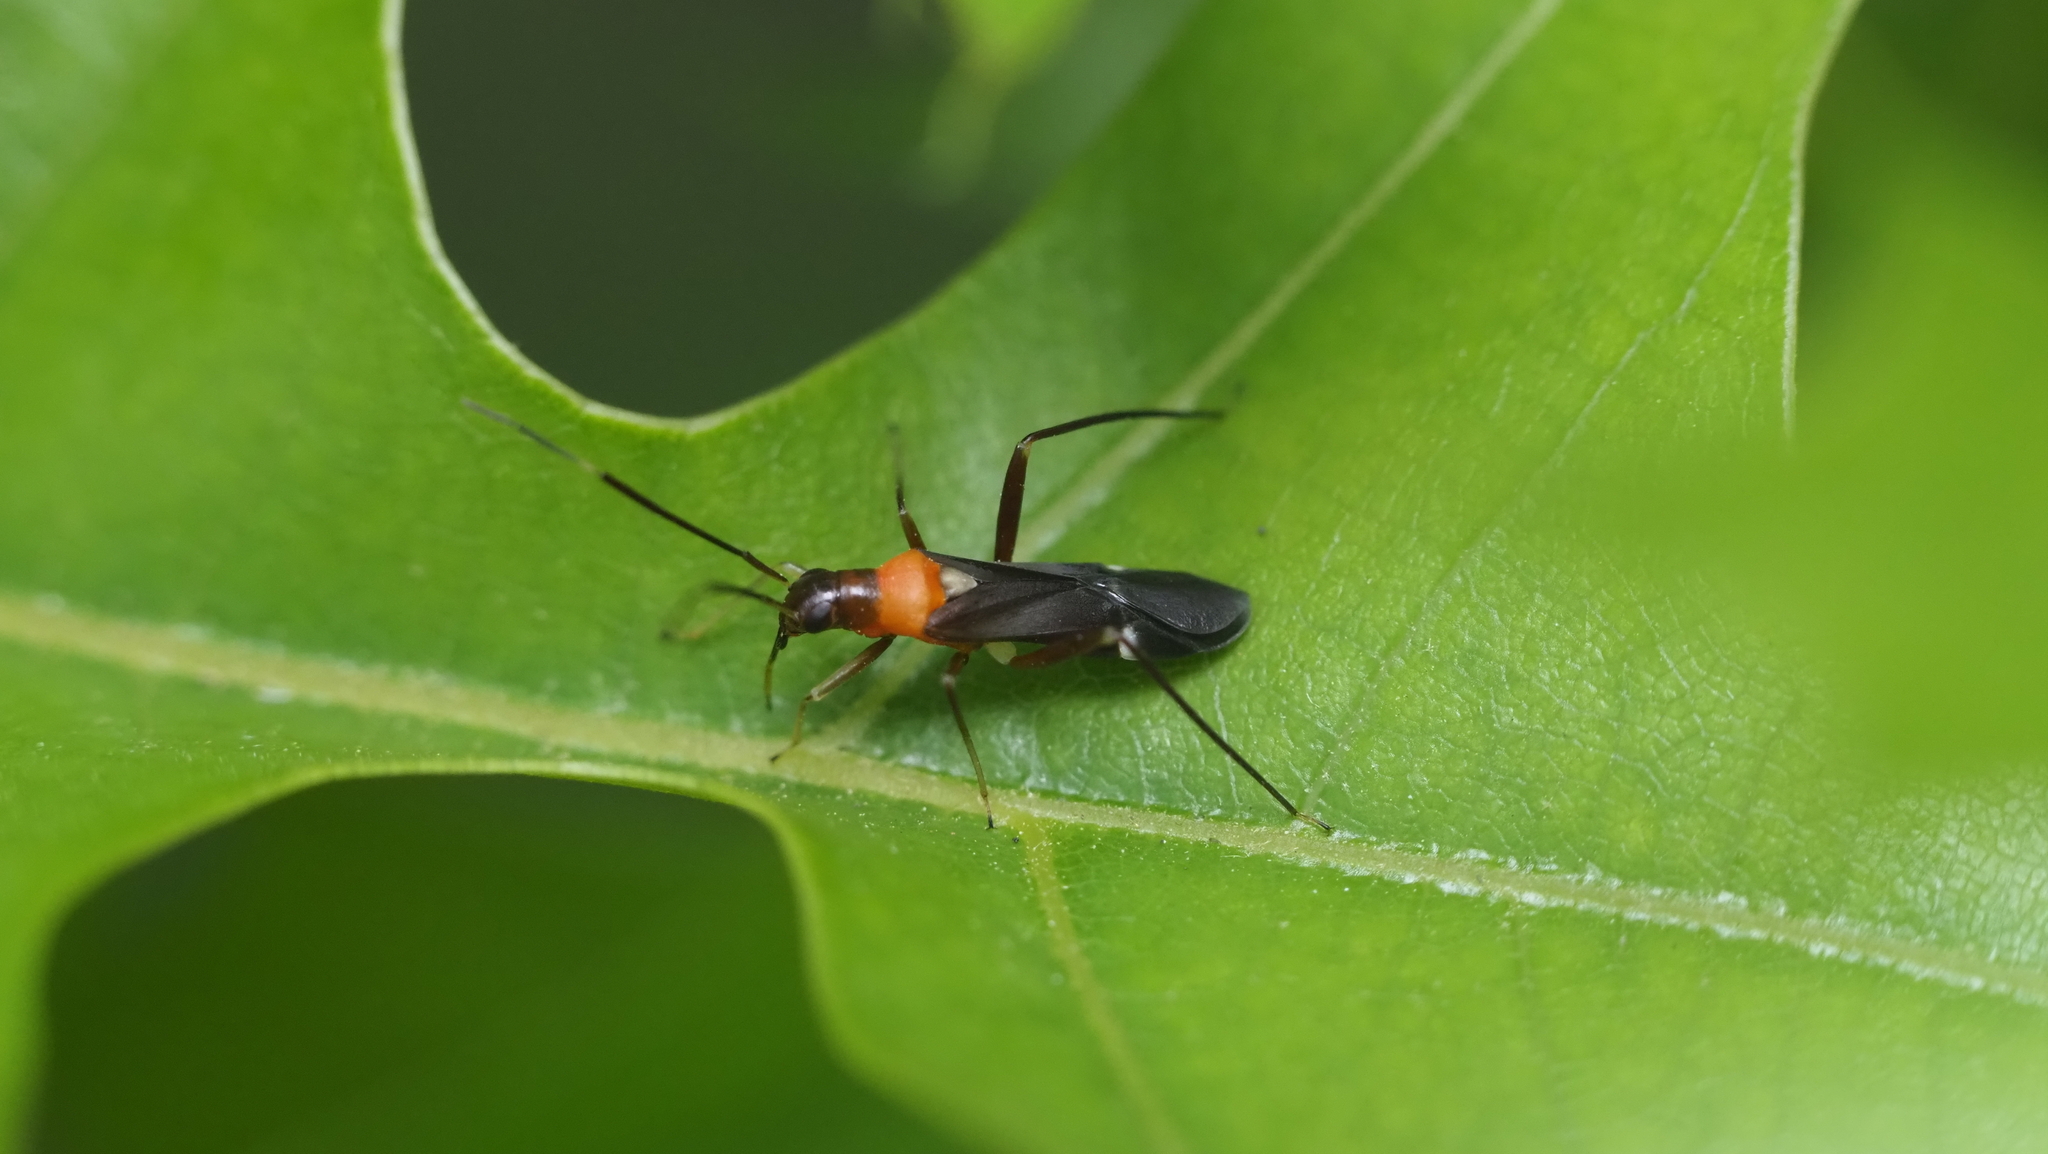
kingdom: Animalia
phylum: Arthropoda
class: Insecta
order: Hemiptera
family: Miridae
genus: Pseudoxenetus
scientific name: Pseudoxenetus regalis
